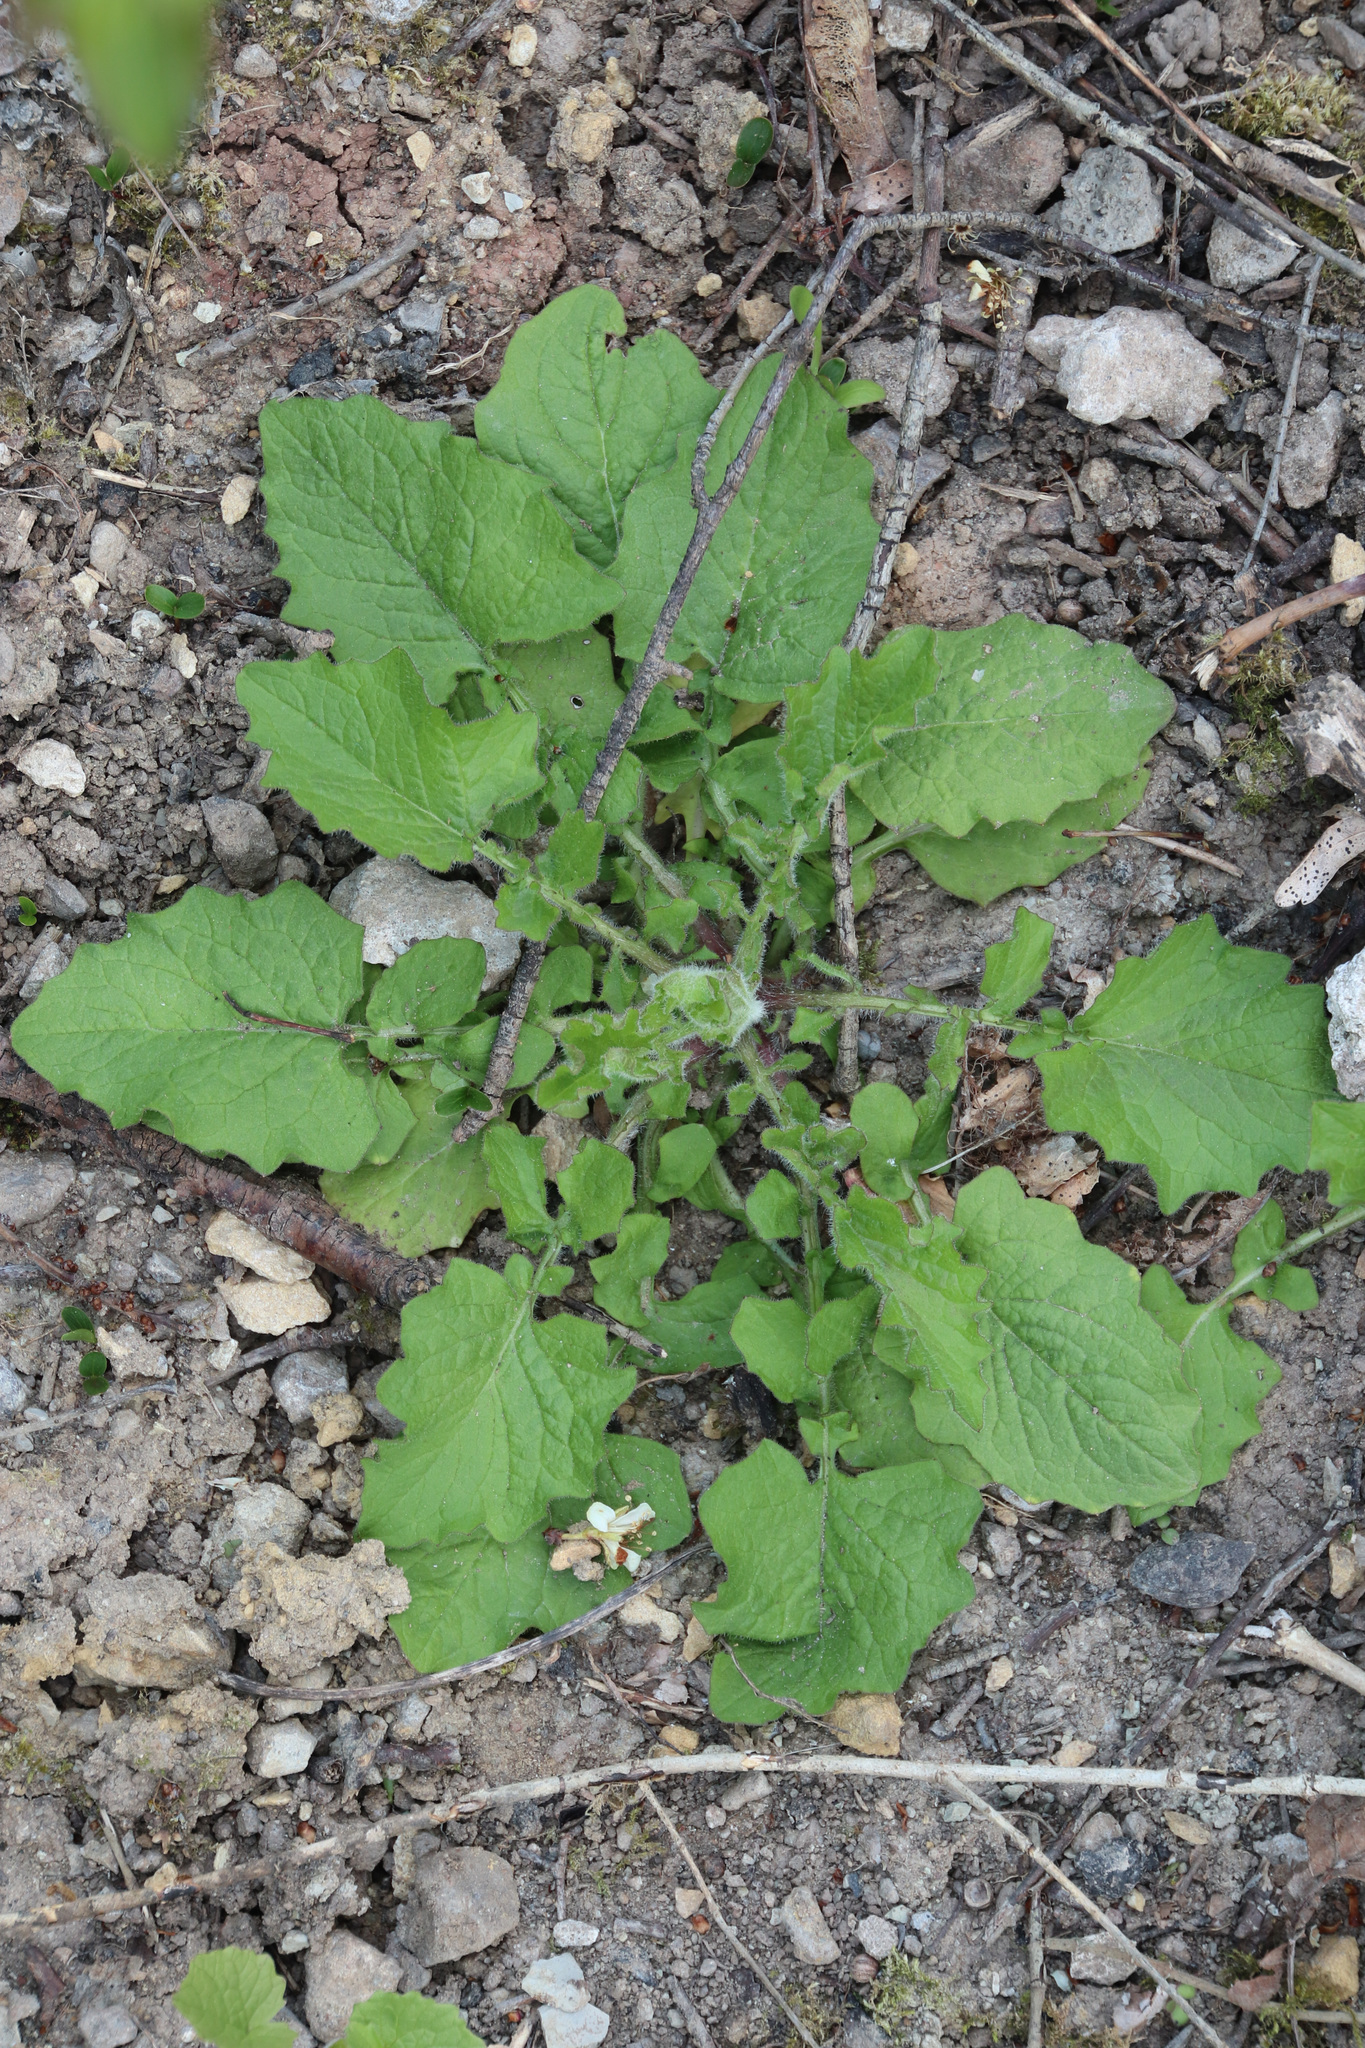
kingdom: Plantae
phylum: Tracheophyta
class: Magnoliopsida
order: Asterales
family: Asteraceae
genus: Lapsana
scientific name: Lapsana communis
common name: Nipplewort
